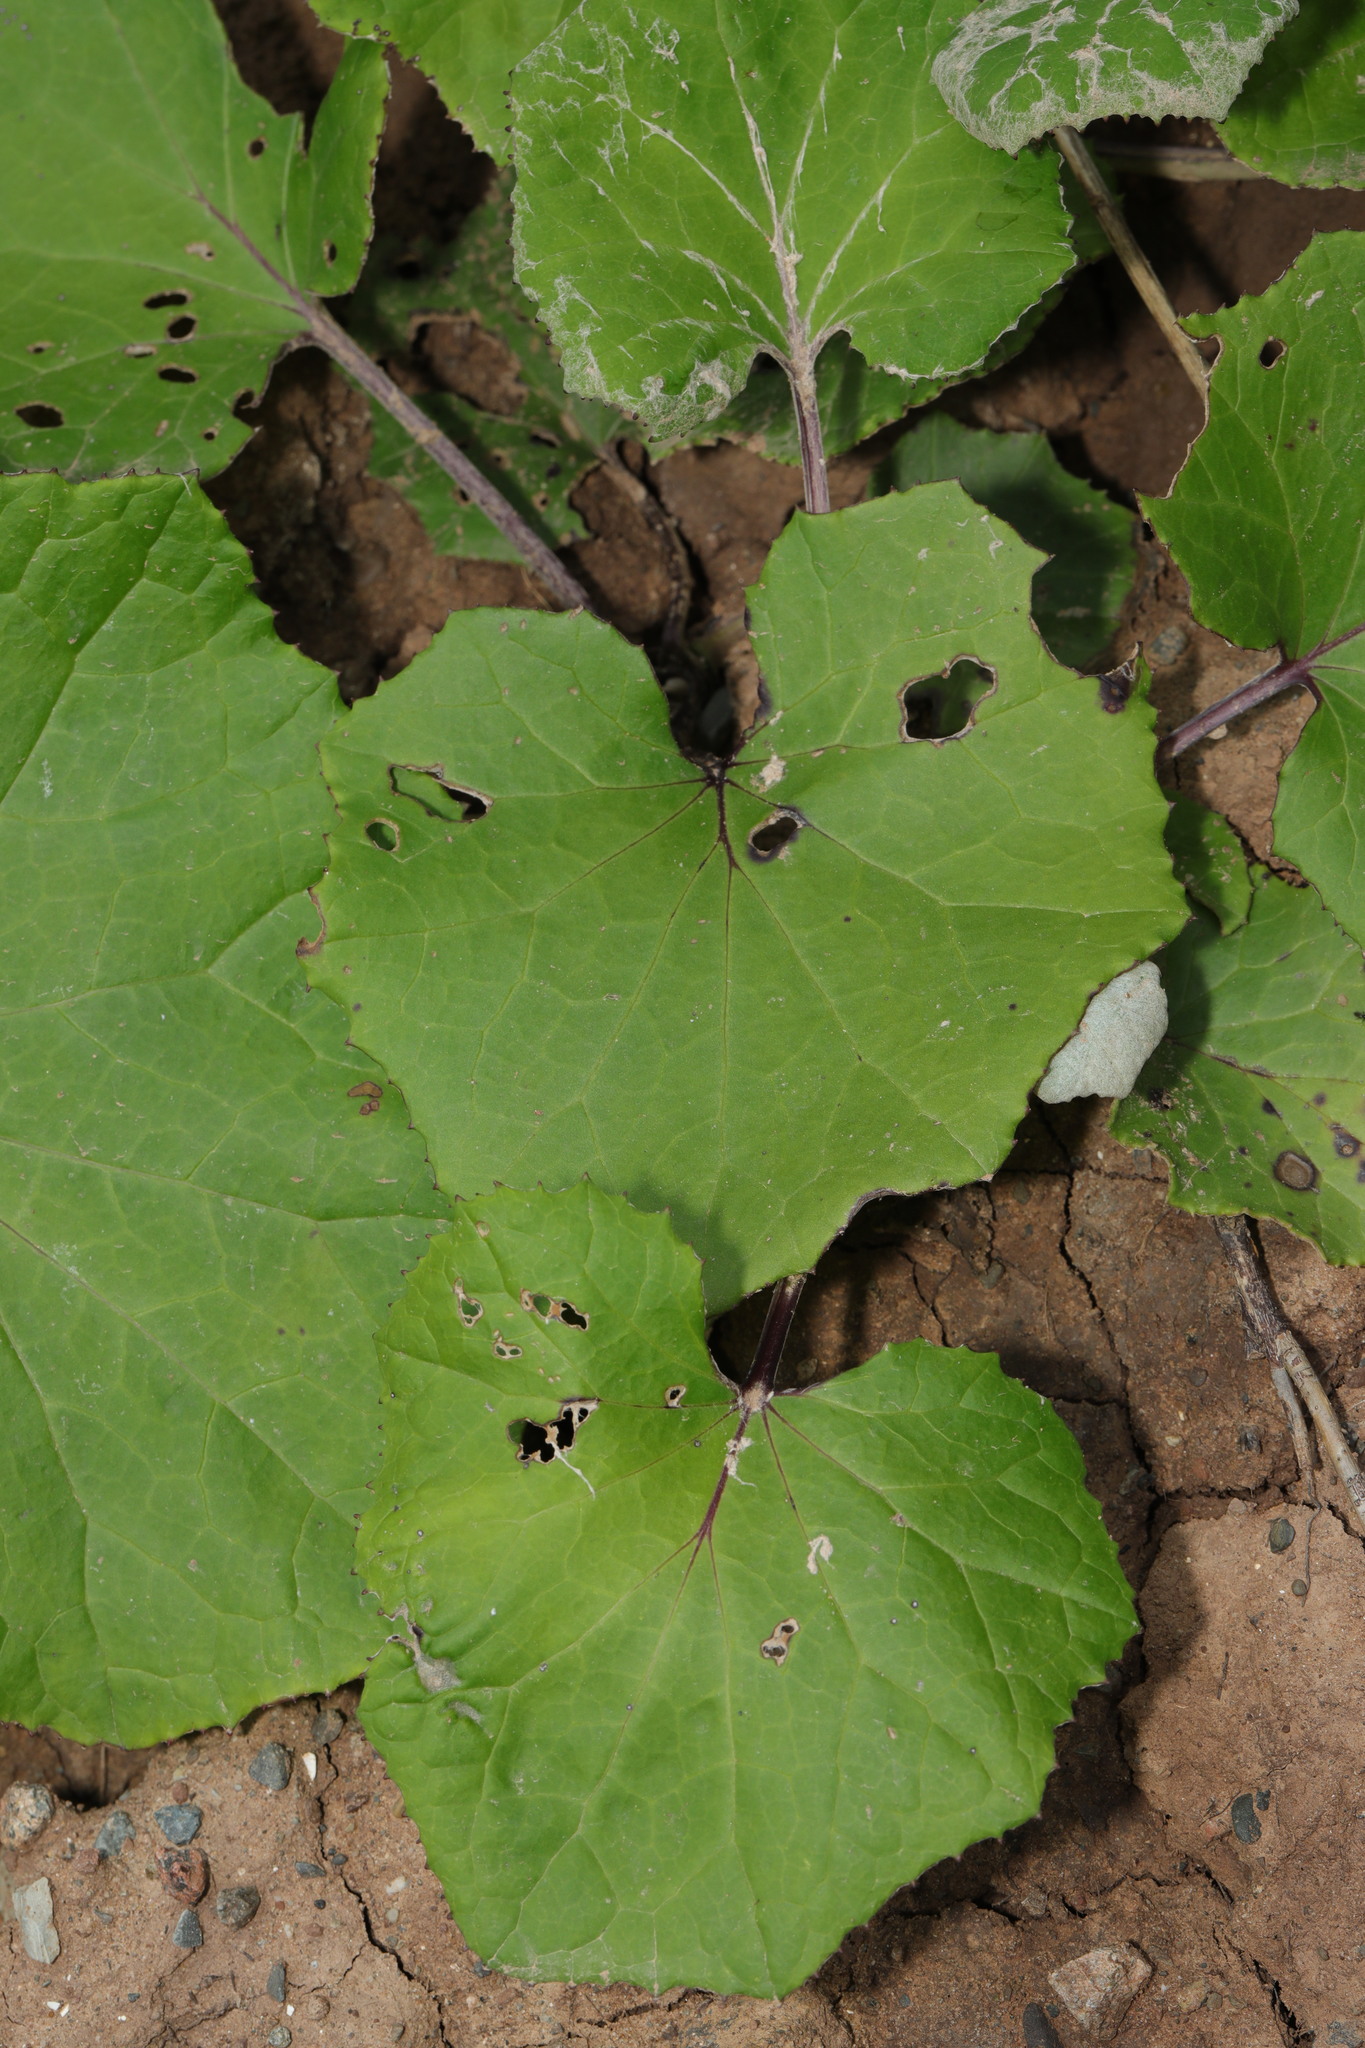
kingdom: Plantae
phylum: Tracheophyta
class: Magnoliopsida
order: Asterales
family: Asteraceae
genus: Tussilago
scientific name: Tussilago farfara
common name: Coltsfoot
